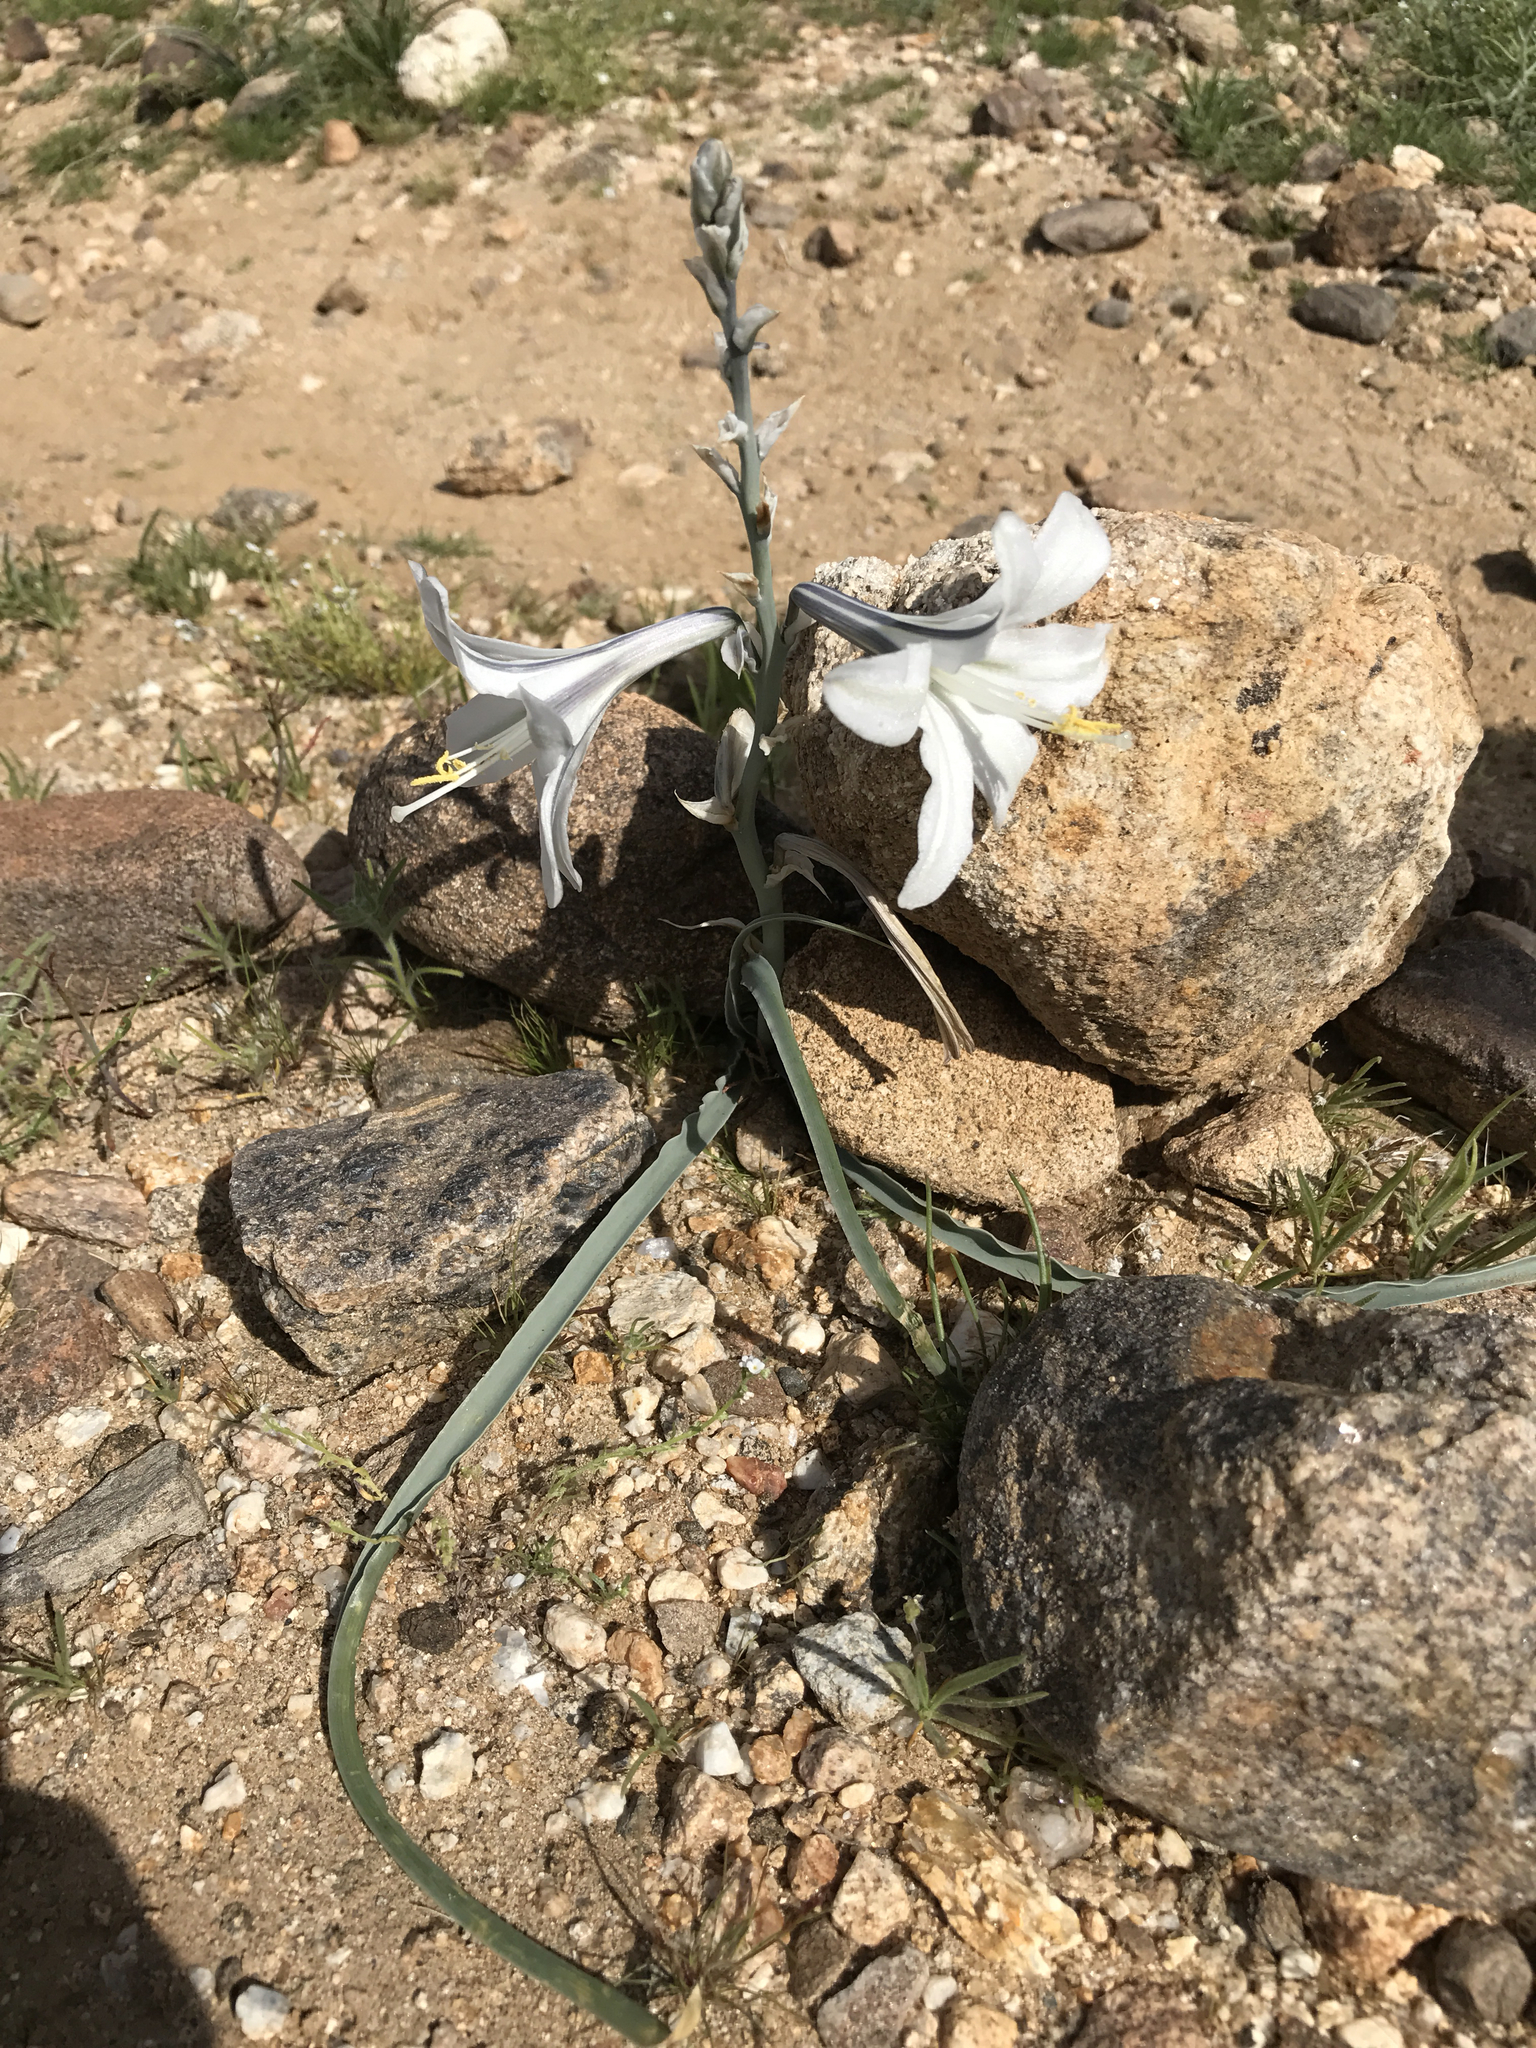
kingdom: Plantae
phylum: Tracheophyta
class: Liliopsida
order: Asparagales
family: Asparagaceae
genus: Hesperocallis
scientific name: Hesperocallis undulata
